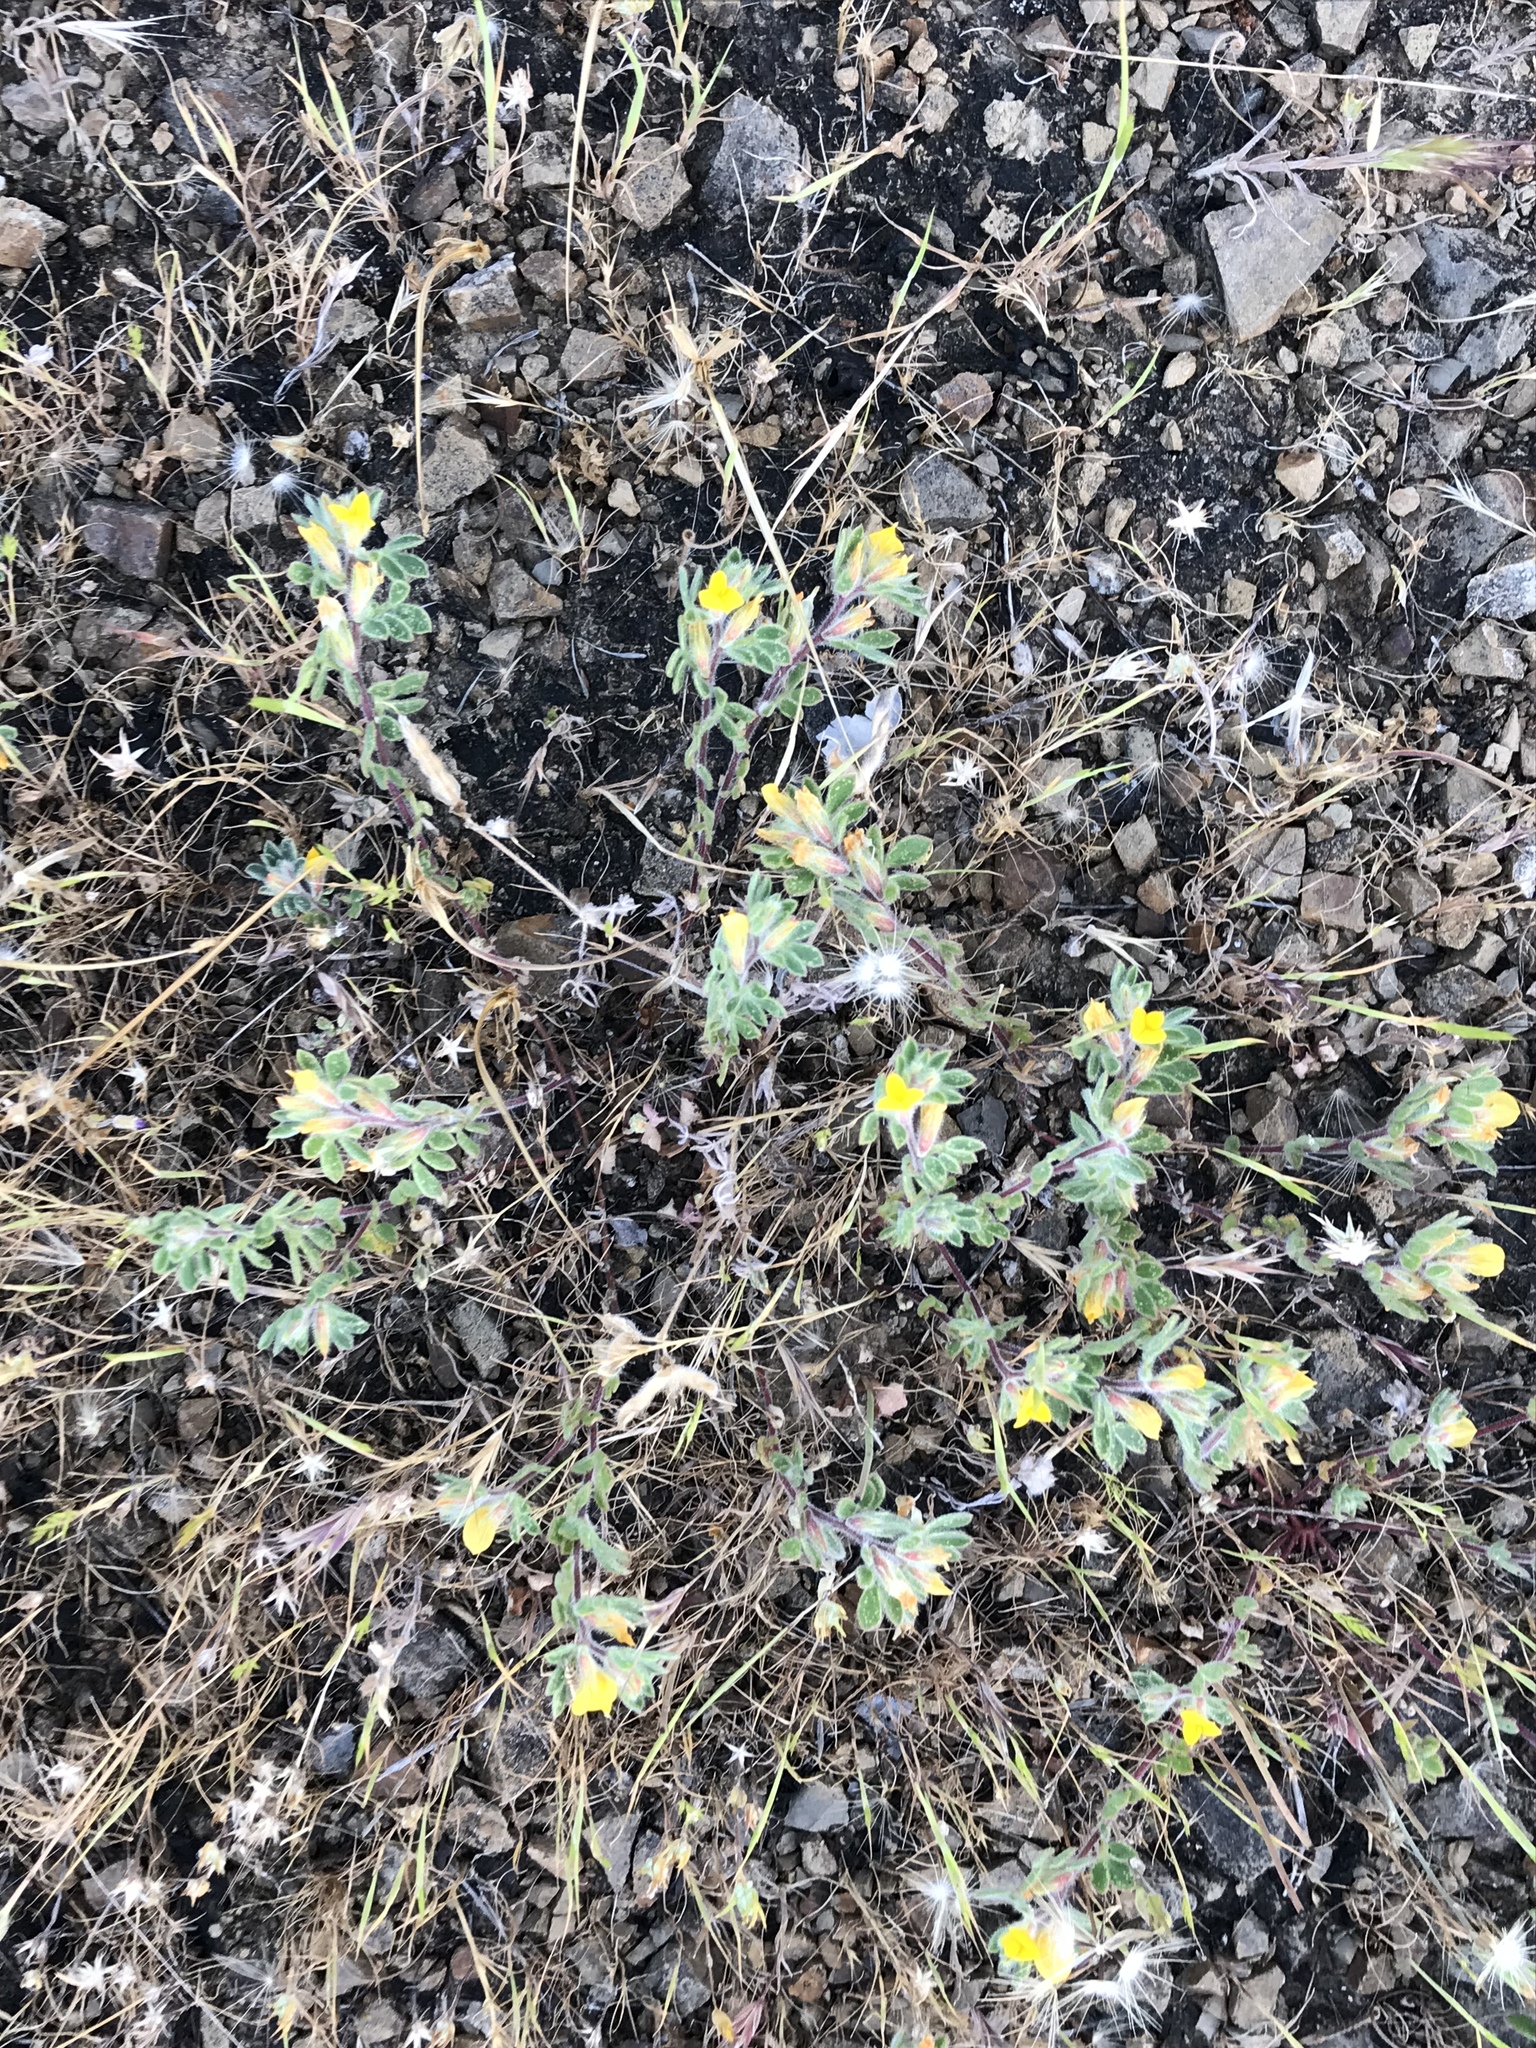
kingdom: Plantae
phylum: Tracheophyta
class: Magnoliopsida
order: Fabales
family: Fabaceae
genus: Acmispon
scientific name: Acmispon brachycarpus
